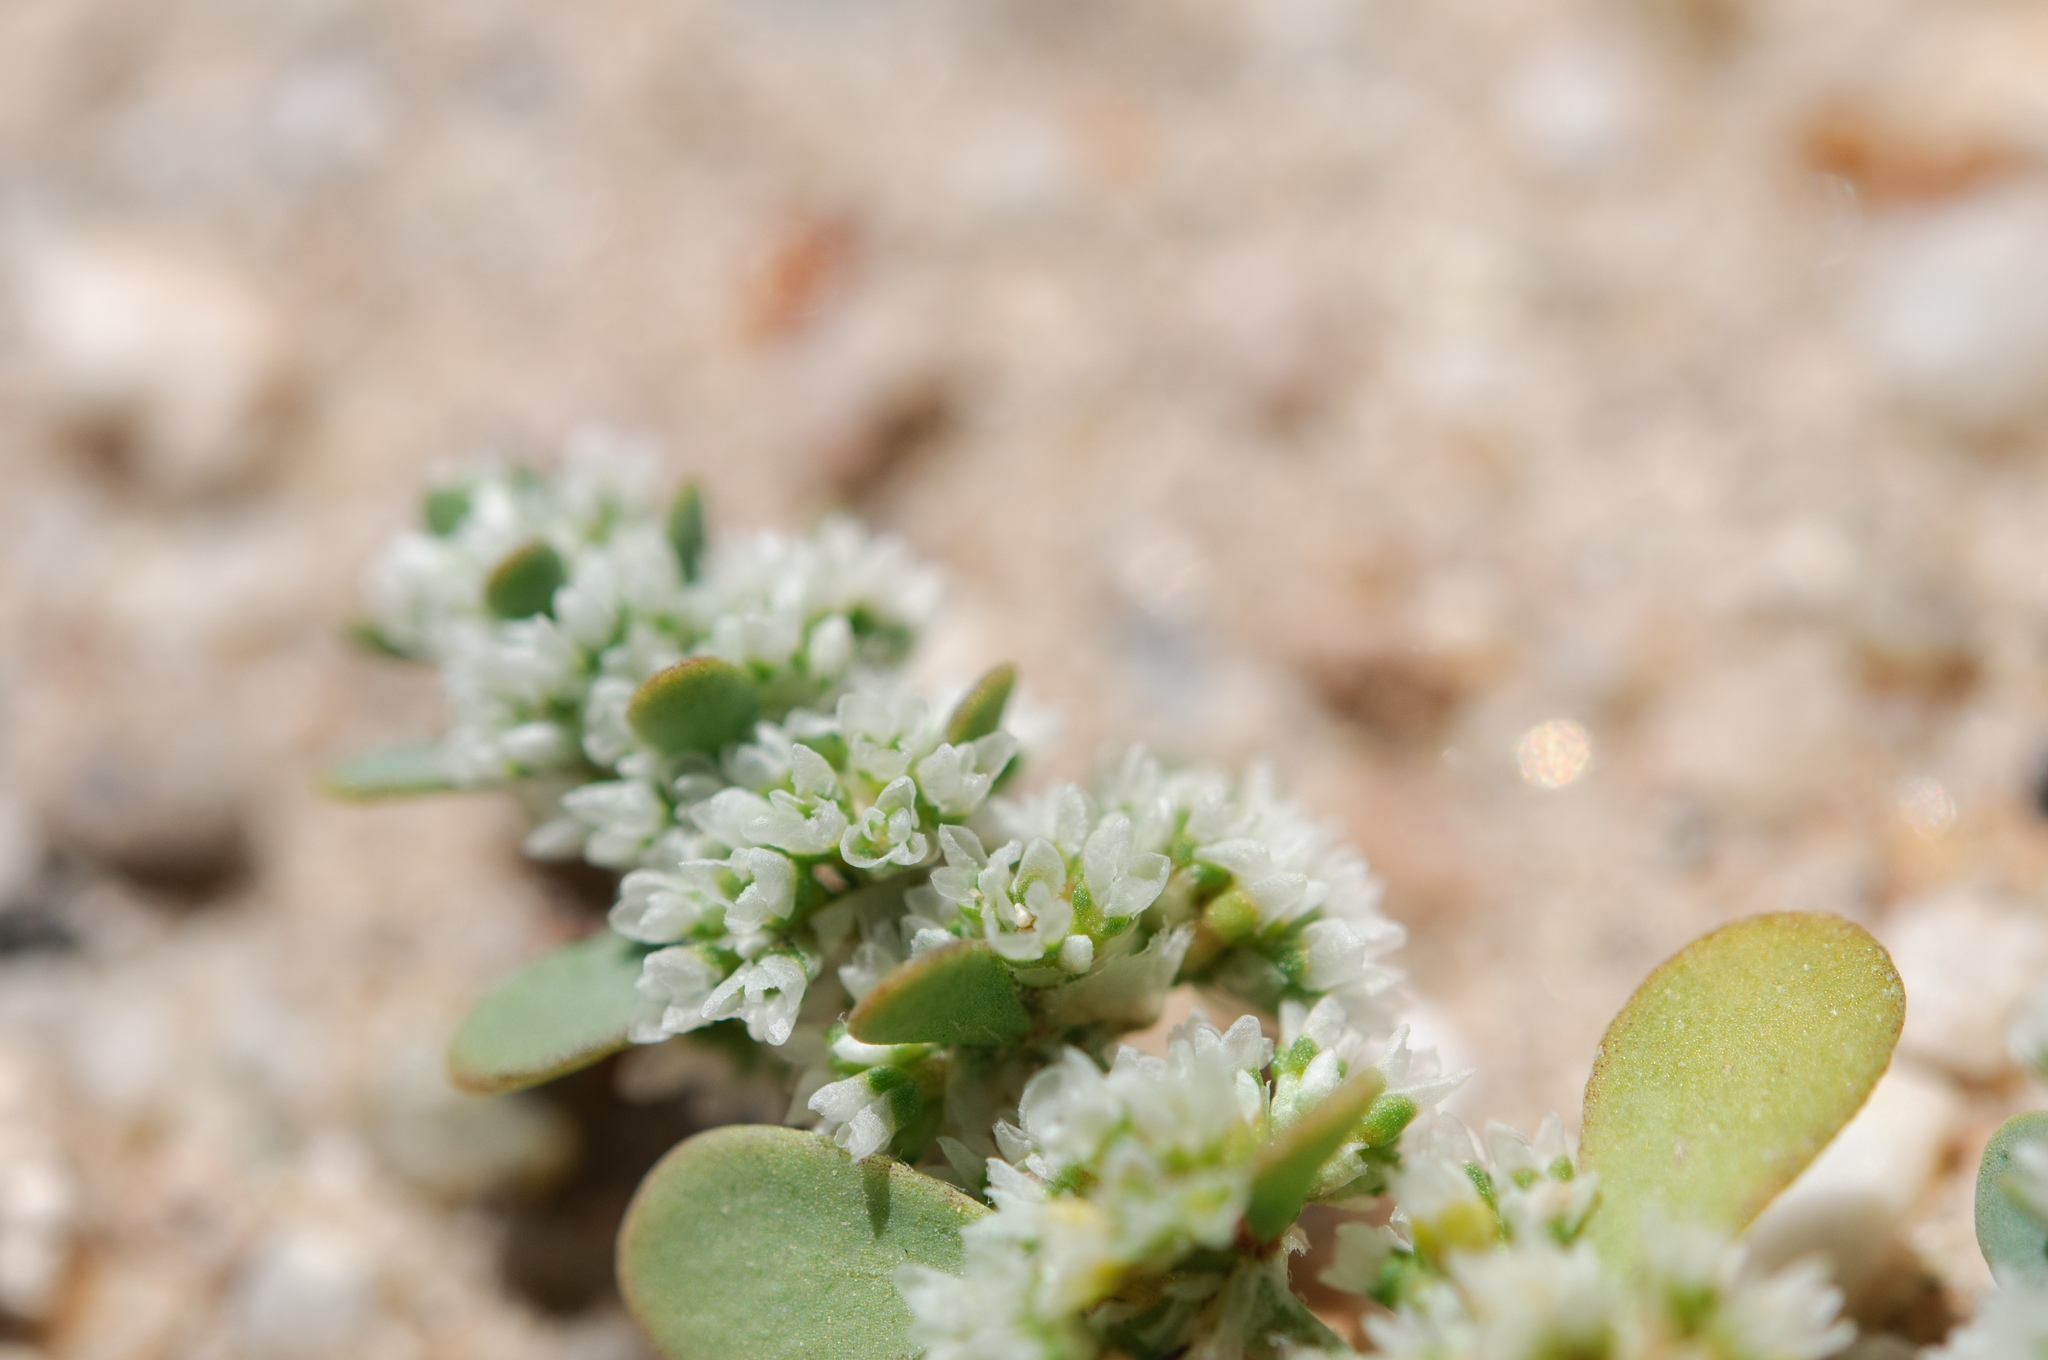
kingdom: Plantae
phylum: Tracheophyta
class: Magnoliopsida
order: Caryophyllales
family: Caryophyllaceae
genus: Achyronychia
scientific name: Achyronychia cooperi
